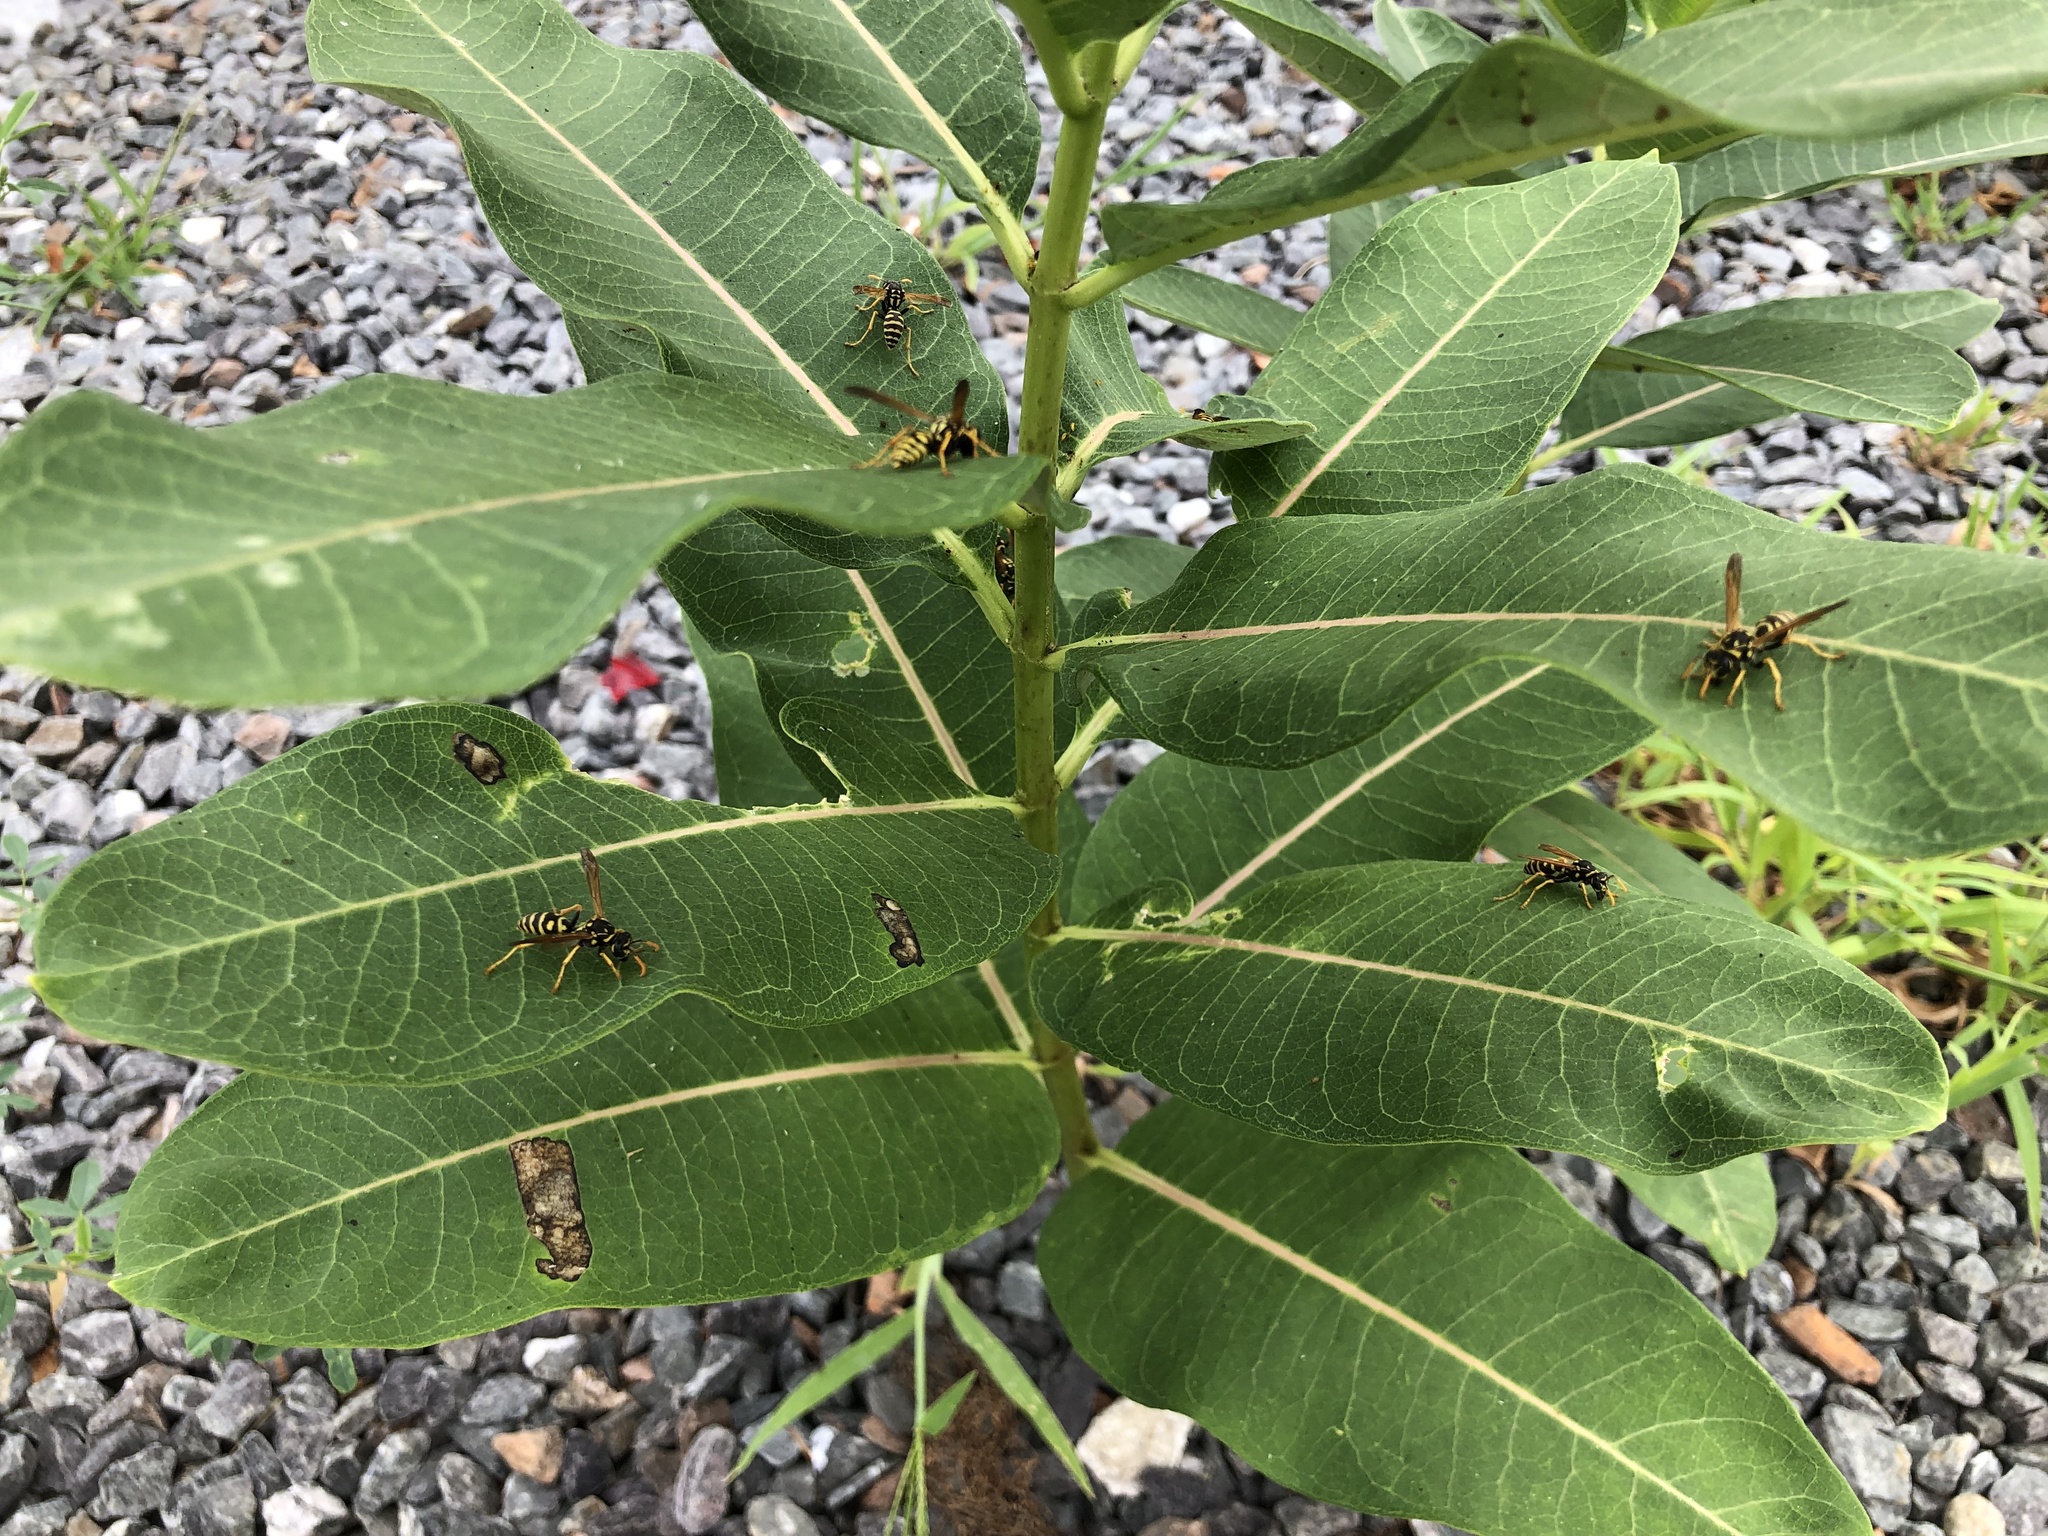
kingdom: Animalia
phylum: Arthropoda
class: Insecta
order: Hymenoptera
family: Eumenidae
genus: Polistes
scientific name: Polistes dominula
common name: Paper wasp
